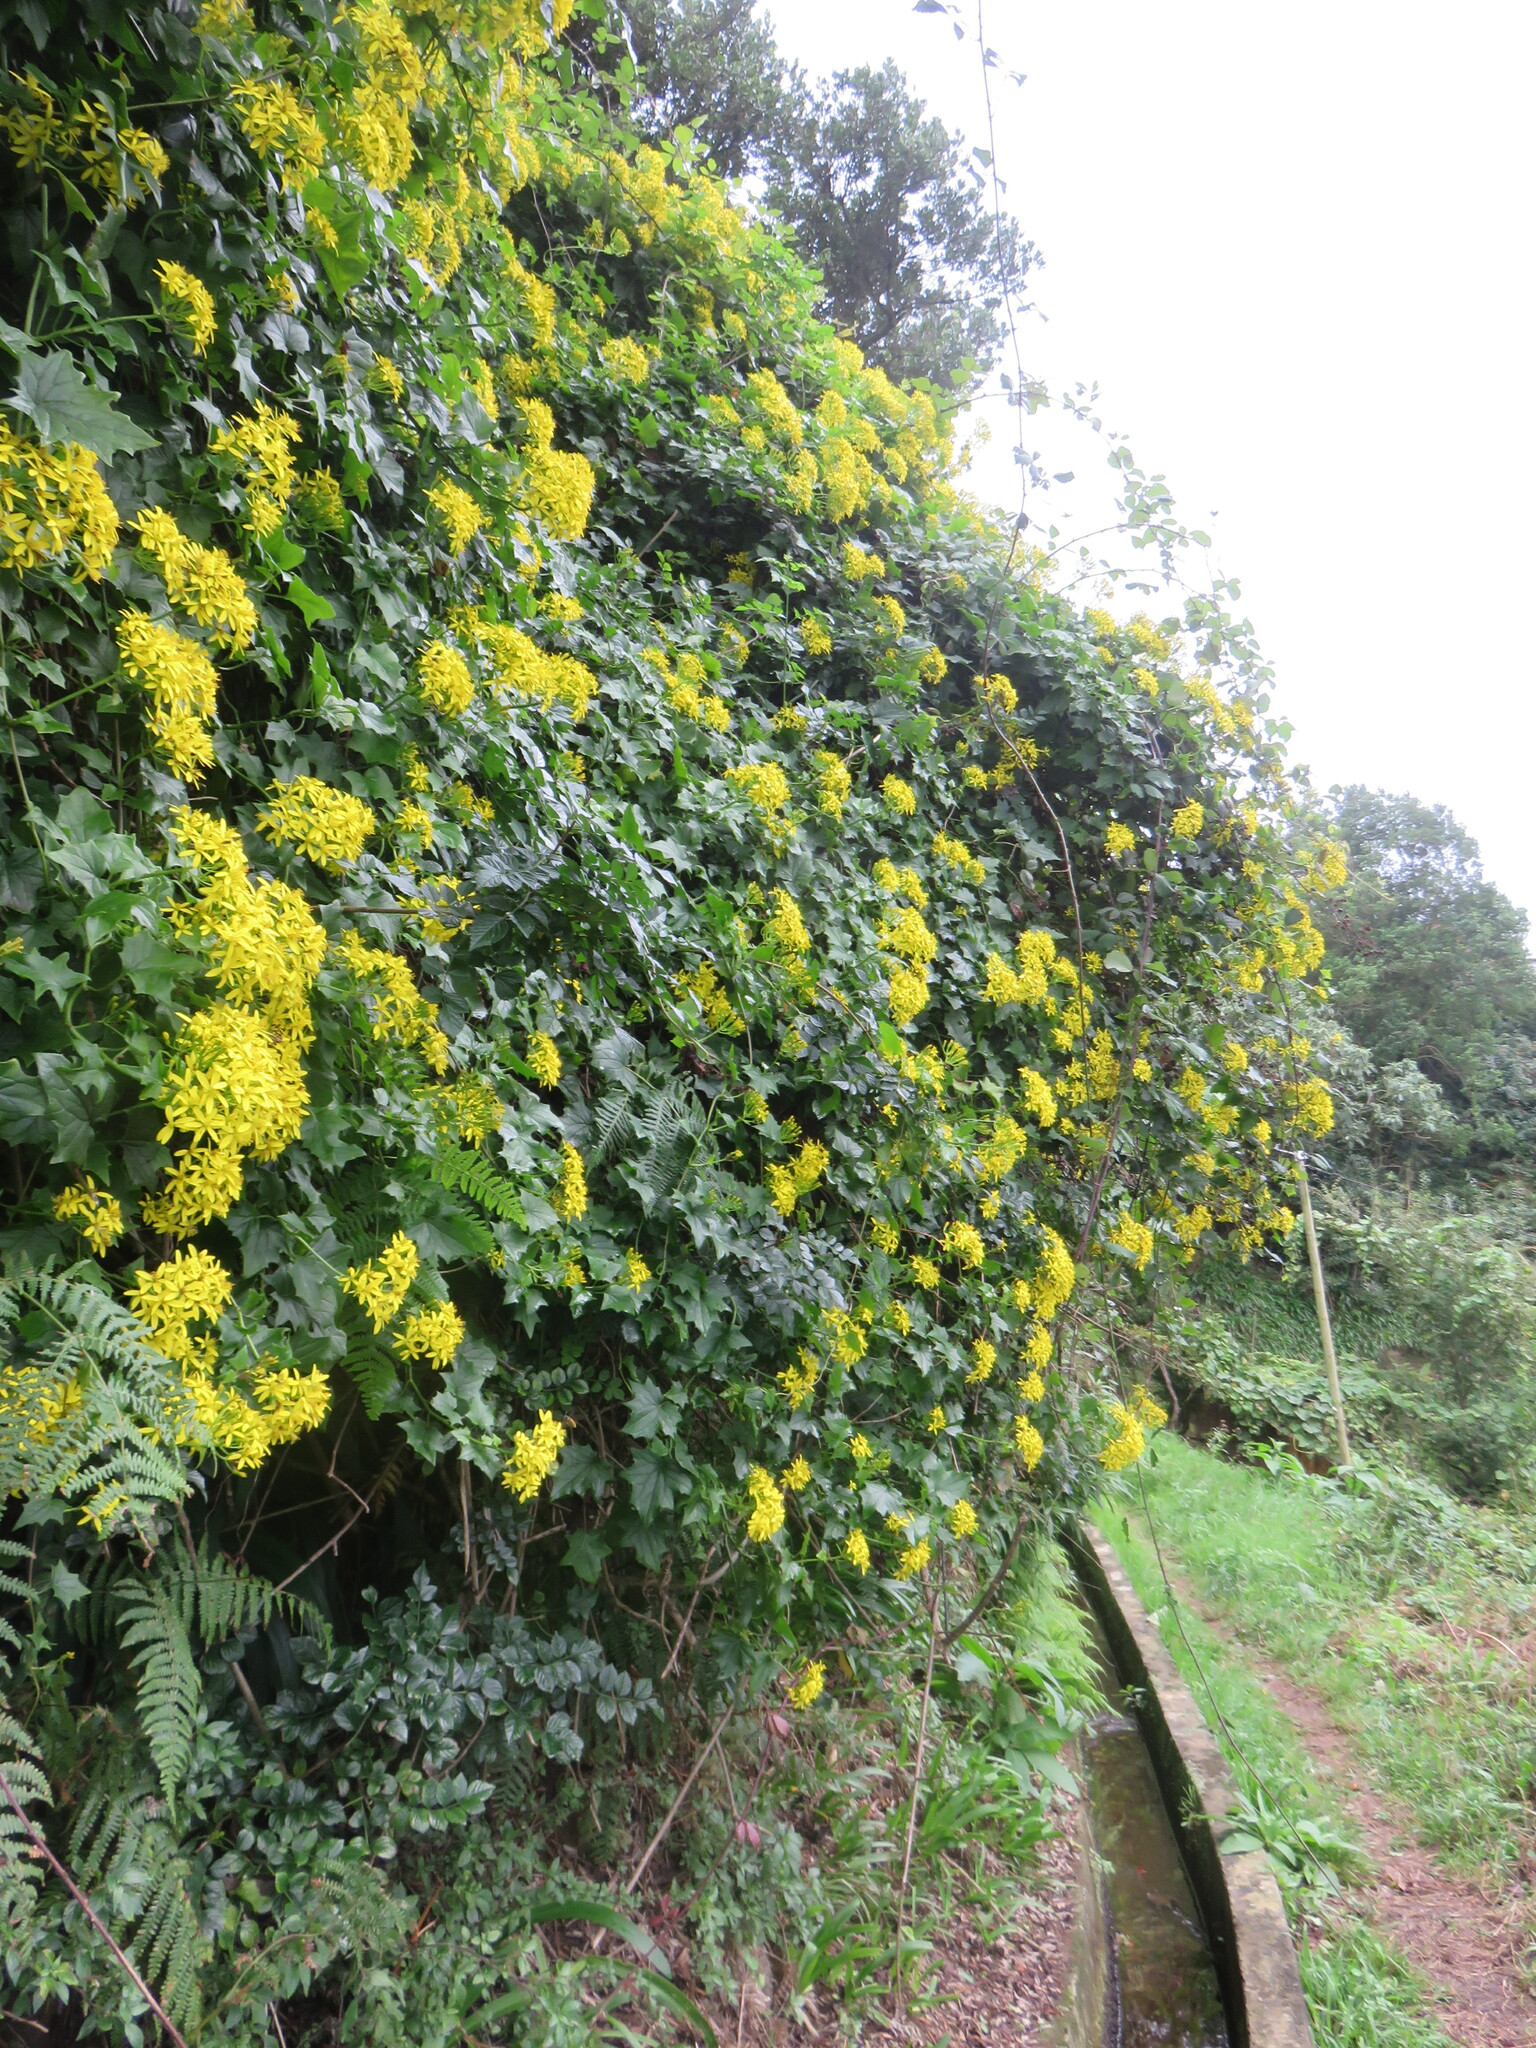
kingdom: Plantae
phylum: Tracheophyta
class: Magnoliopsida
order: Asterales
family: Asteraceae
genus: Delairea
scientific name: Delairea odorata
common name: Cape-ivy
